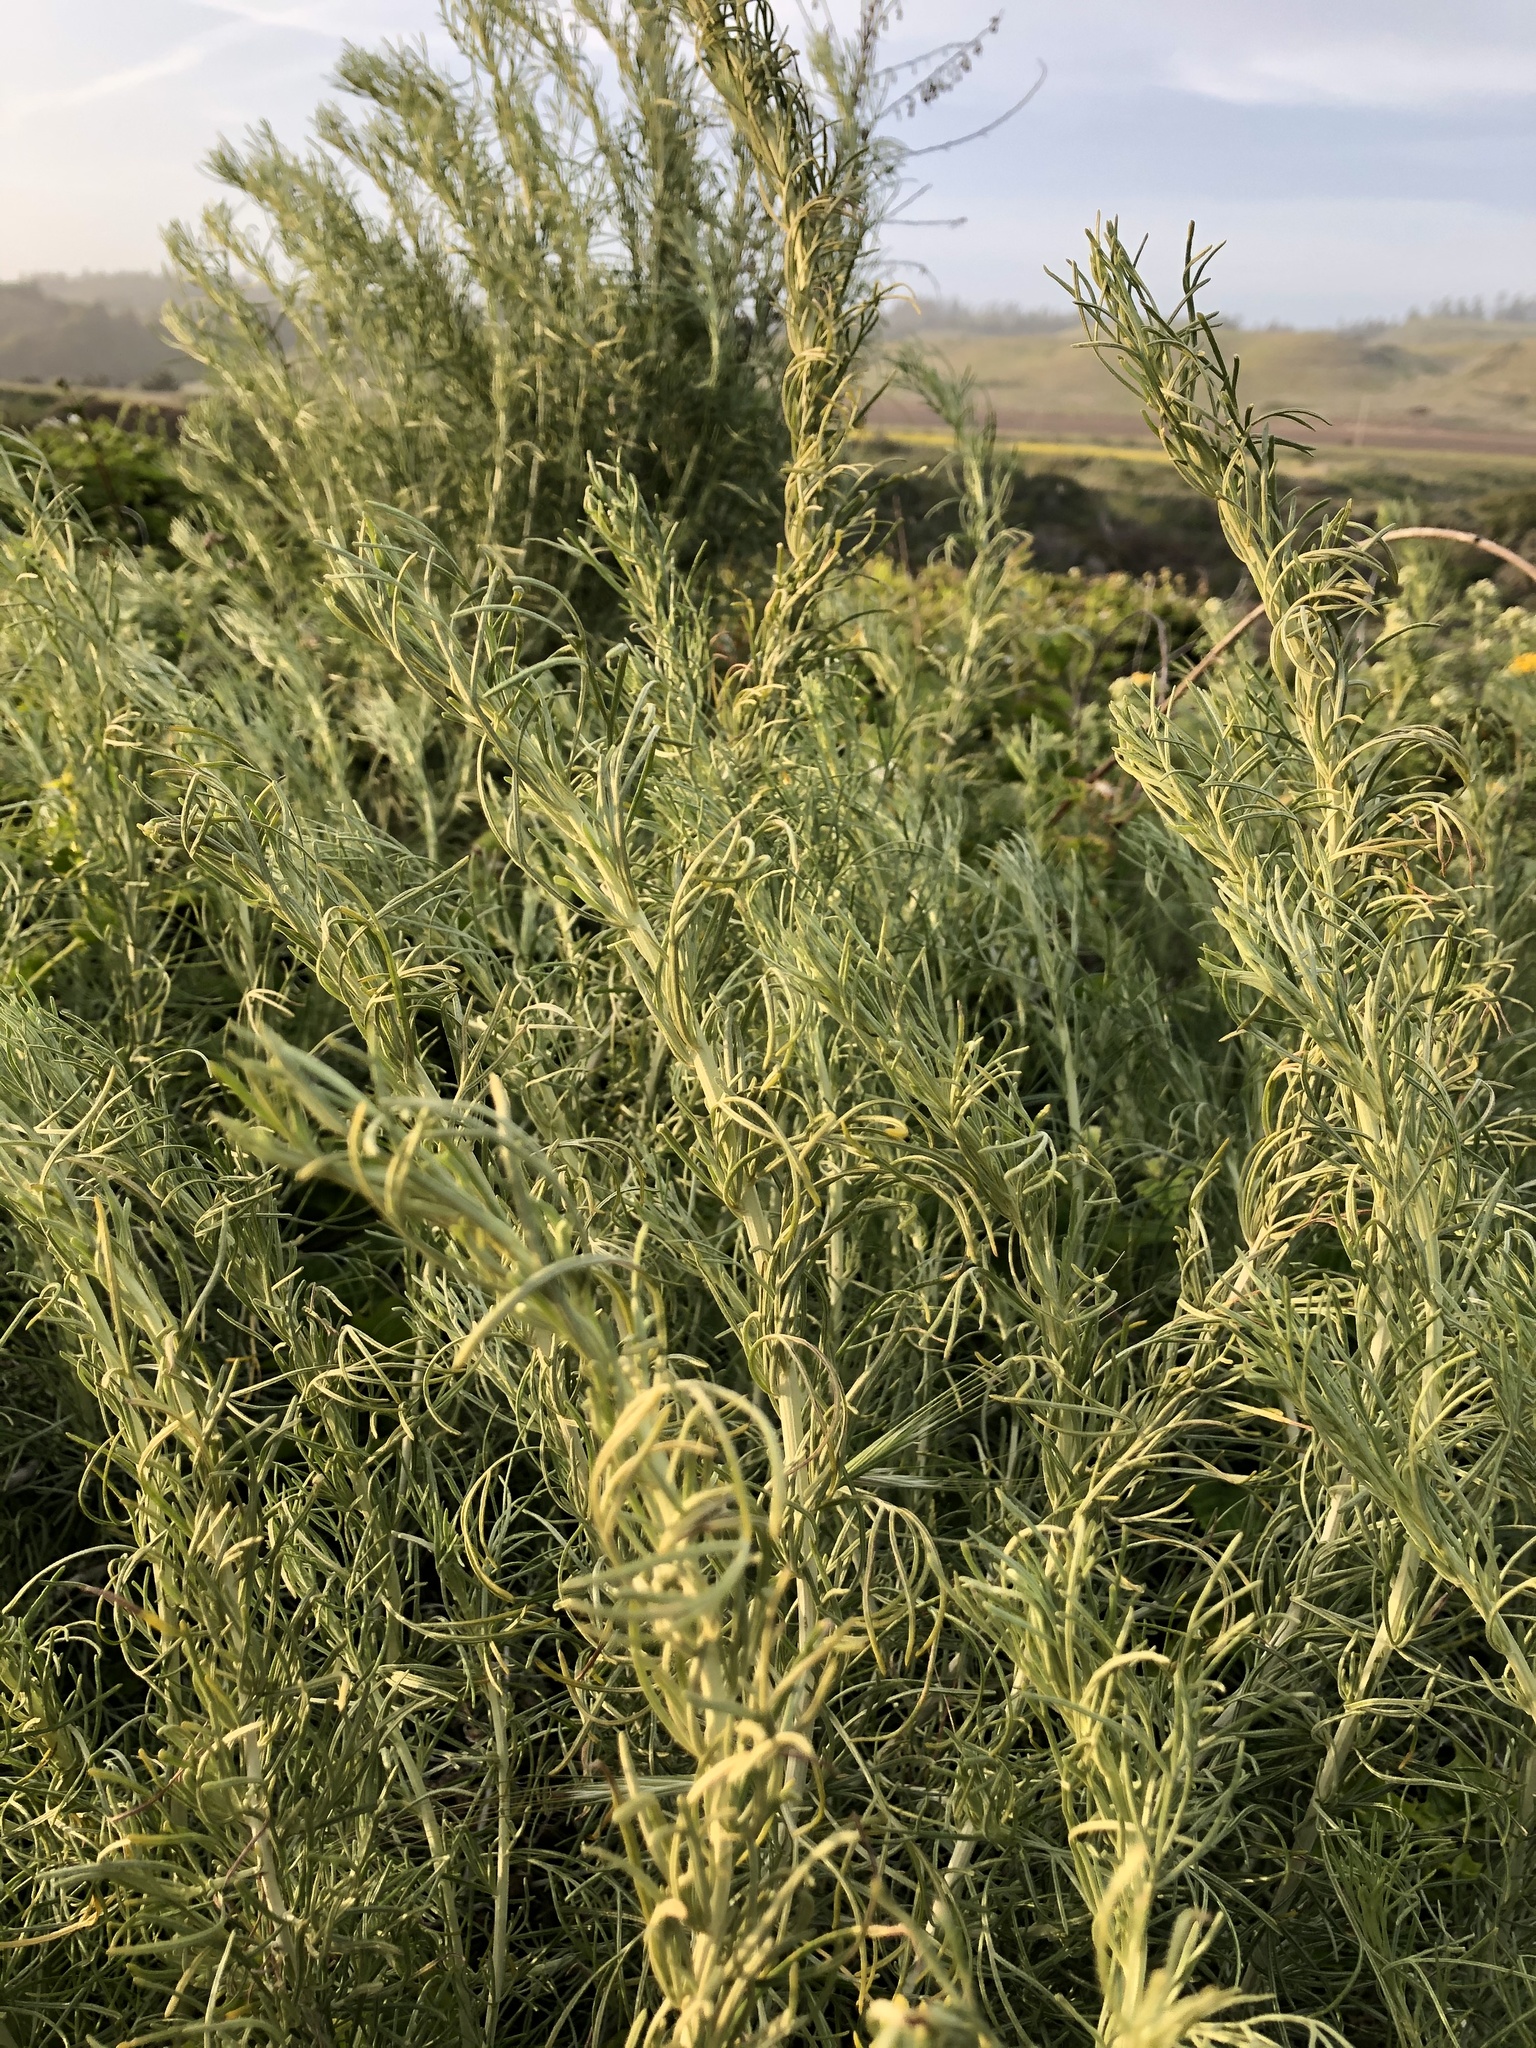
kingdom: Plantae
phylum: Tracheophyta
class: Magnoliopsida
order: Asterales
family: Asteraceae
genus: Artemisia
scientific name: Artemisia californica
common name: California sagebrush
